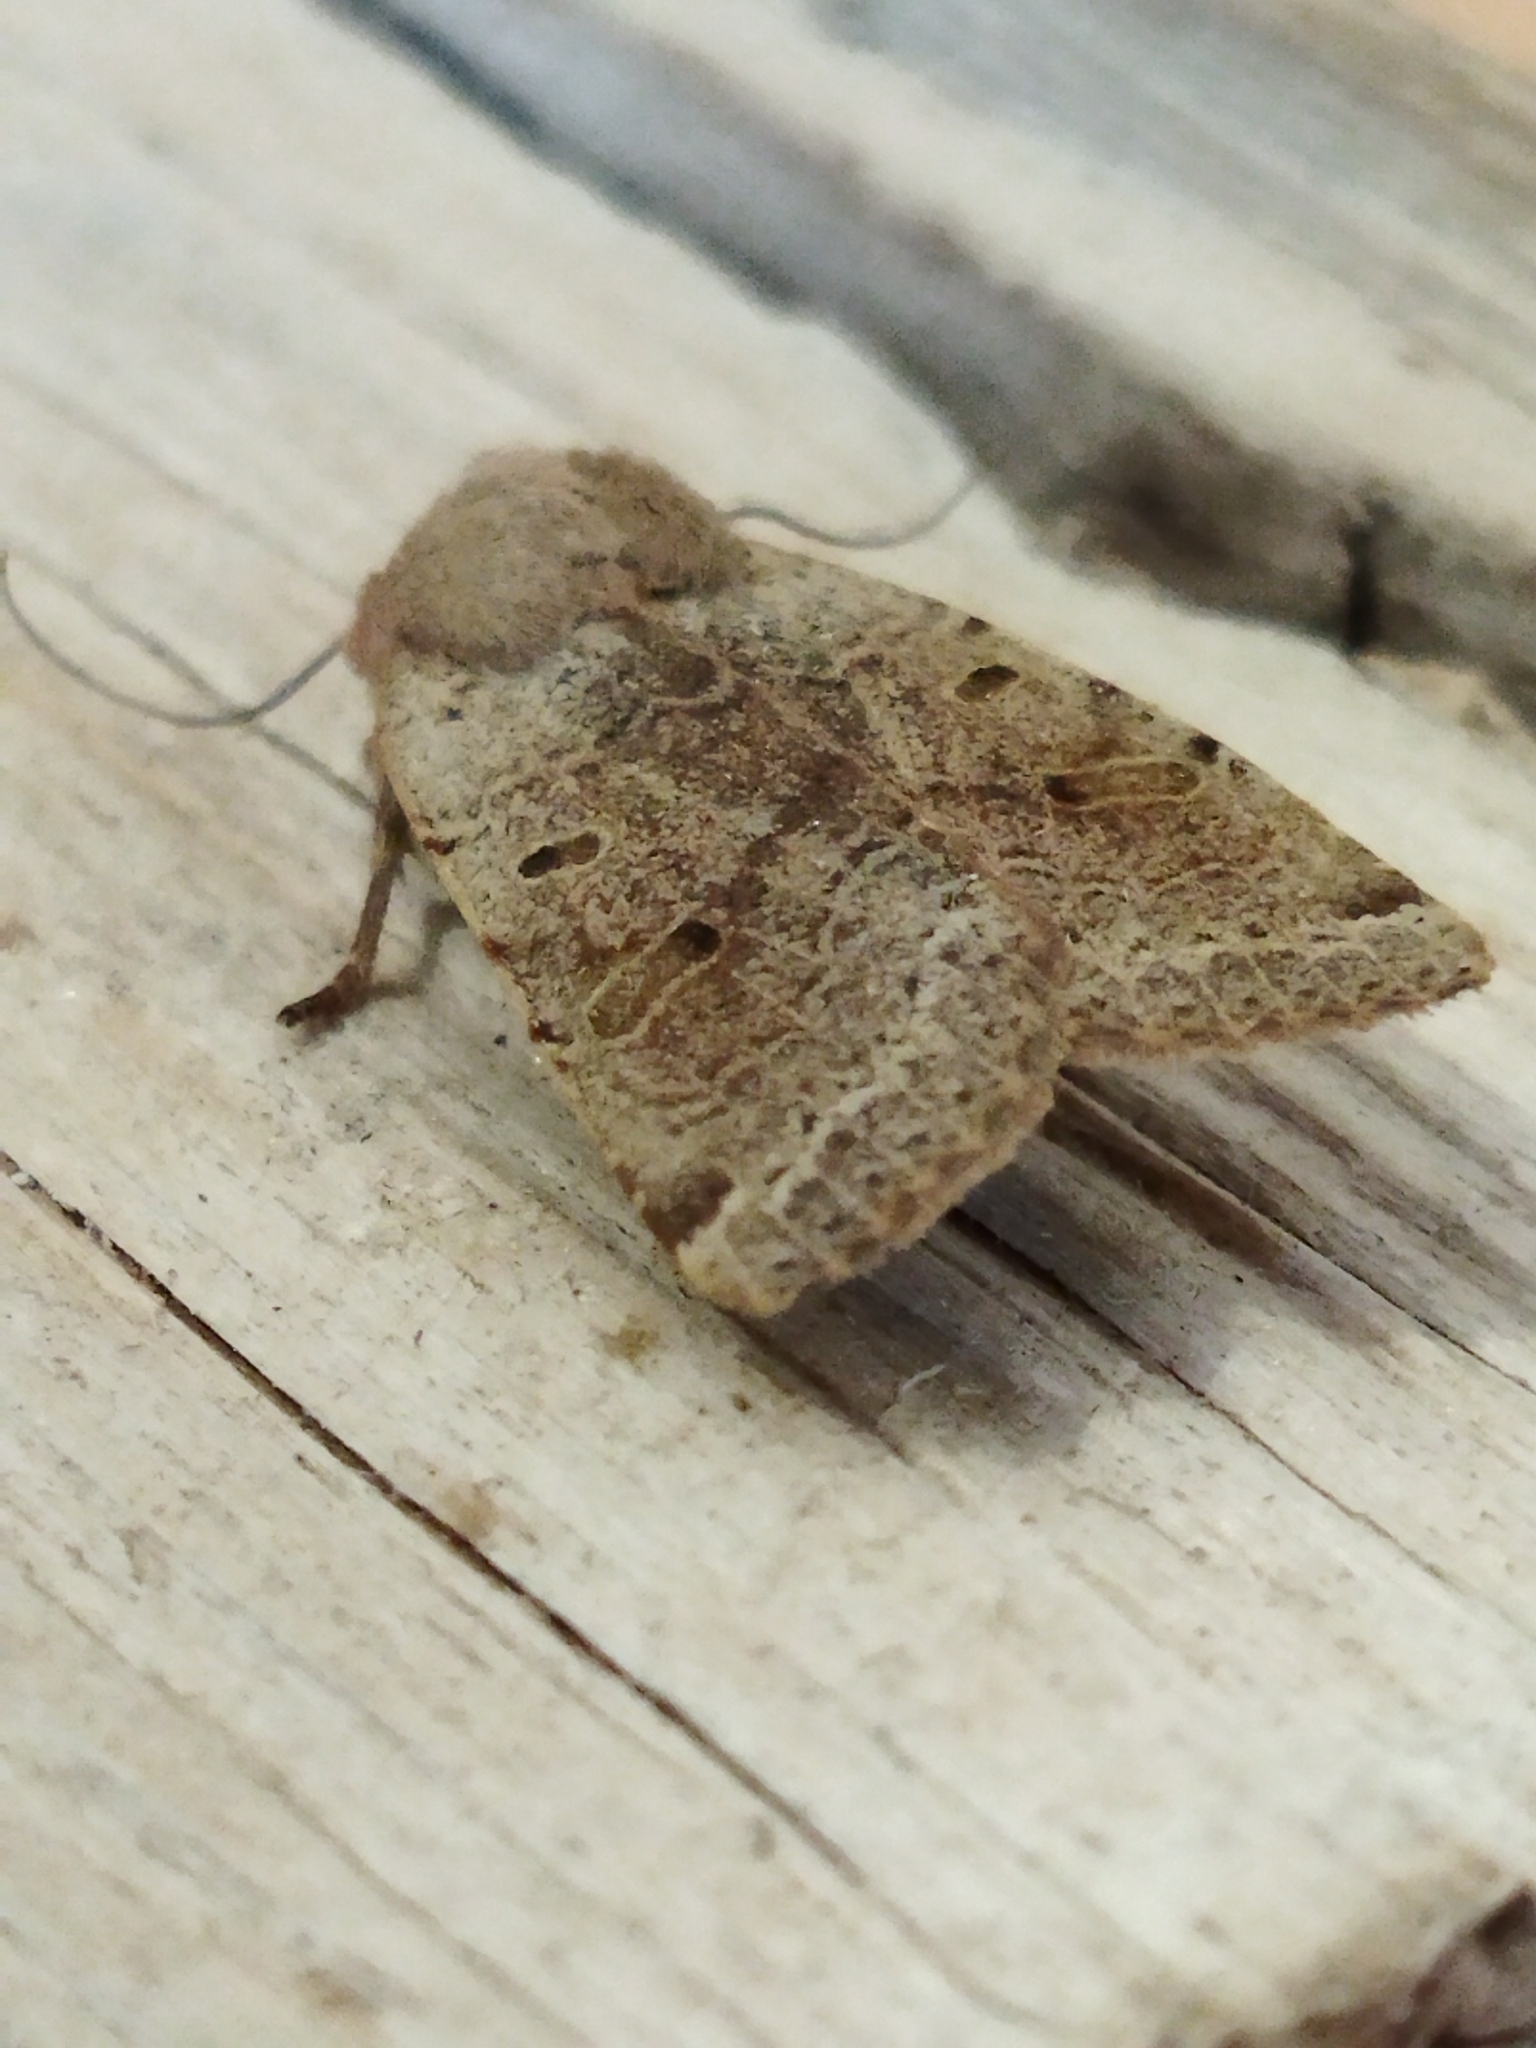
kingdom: Animalia
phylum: Arthropoda
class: Insecta
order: Lepidoptera
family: Noctuidae
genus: Agrochola
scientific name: Agrochola lychnidis
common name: Beaded chestnut
